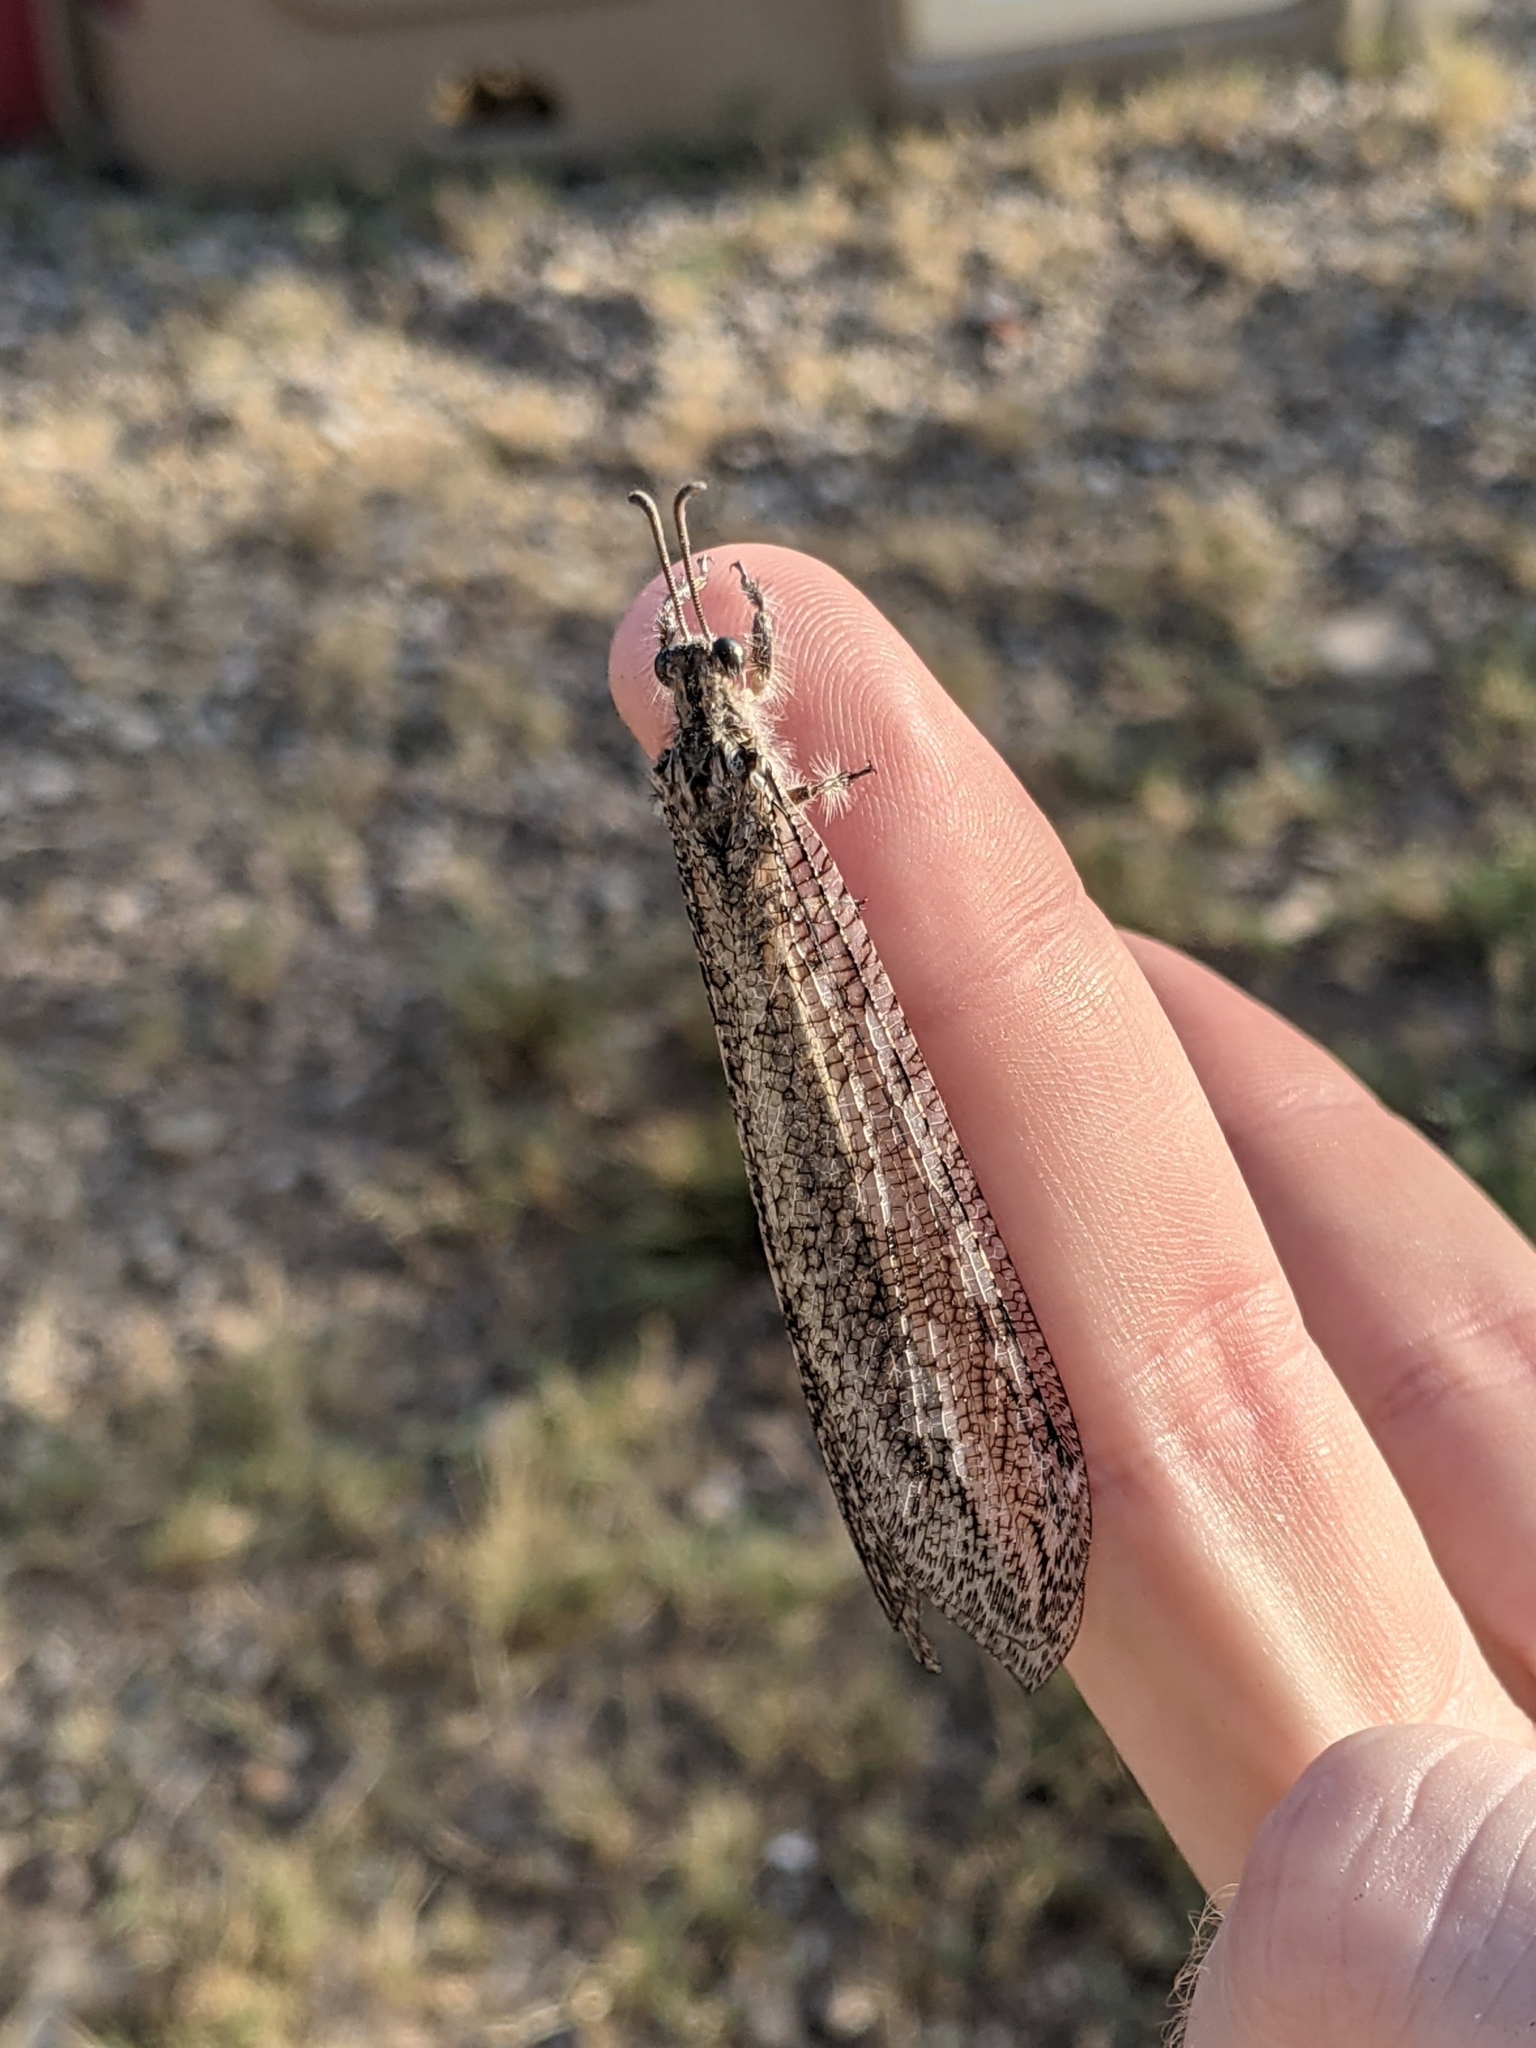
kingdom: Animalia
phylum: Arthropoda
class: Insecta
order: Neuroptera
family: Myrmeleontidae
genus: Vella
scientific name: Vella fallax
